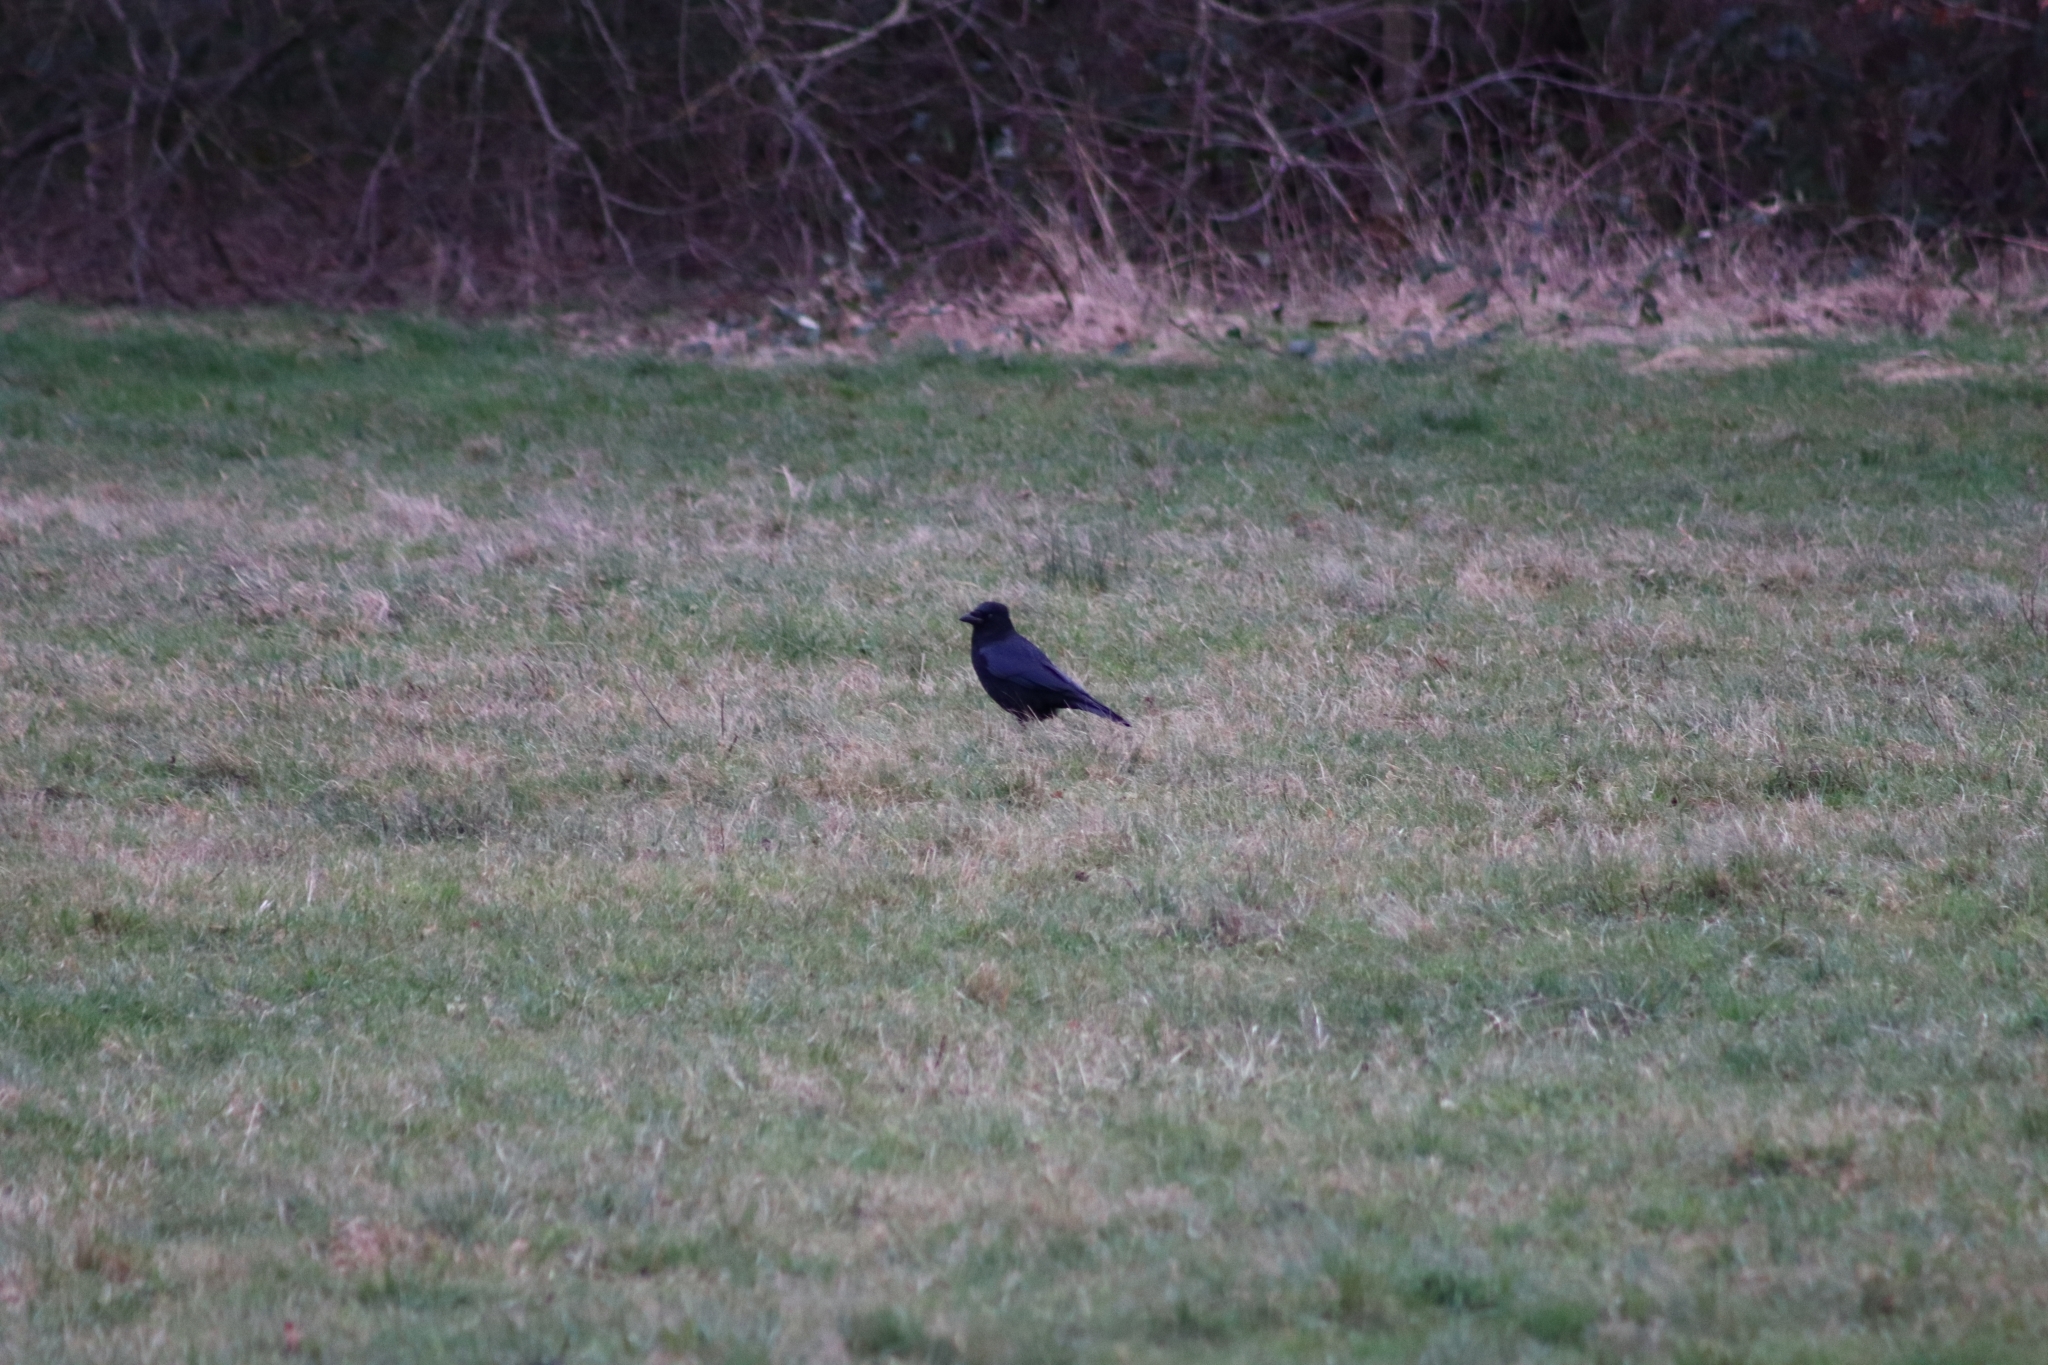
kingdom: Animalia
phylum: Chordata
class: Aves
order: Passeriformes
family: Corvidae
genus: Corvus
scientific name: Corvus corone
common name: Carrion crow
